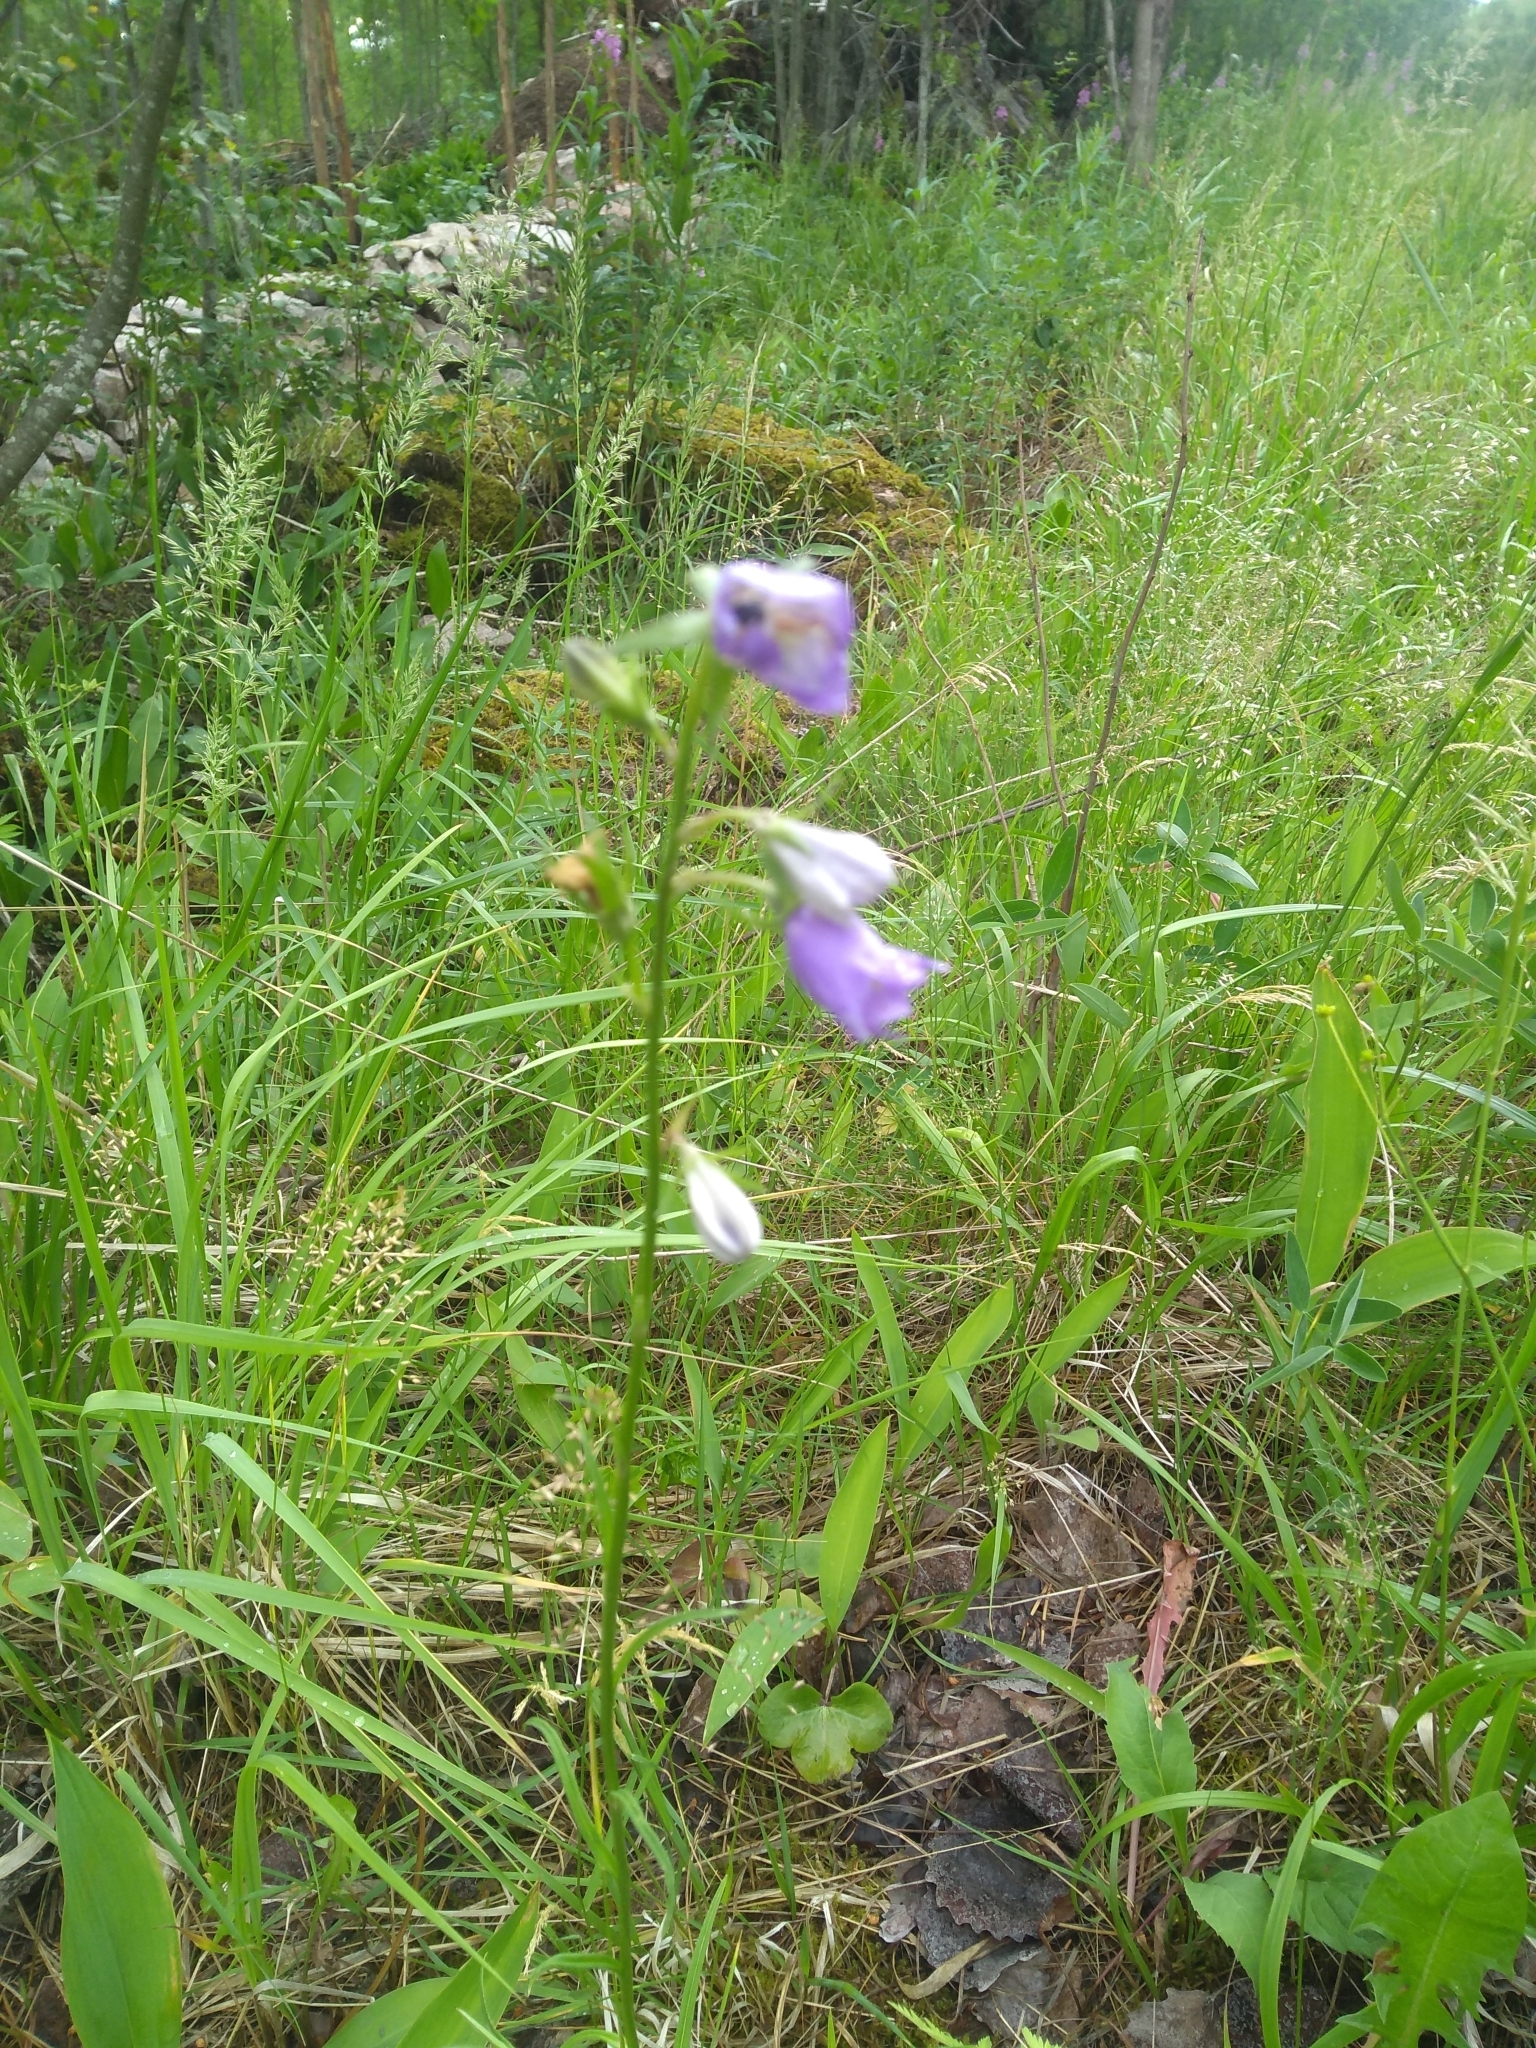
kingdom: Plantae
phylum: Tracheophyta
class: Magnoliopsida
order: Asterales
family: Campanulaceae
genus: Campanula
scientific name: Campanula persicifolia
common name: Peach-leaved bellflower
